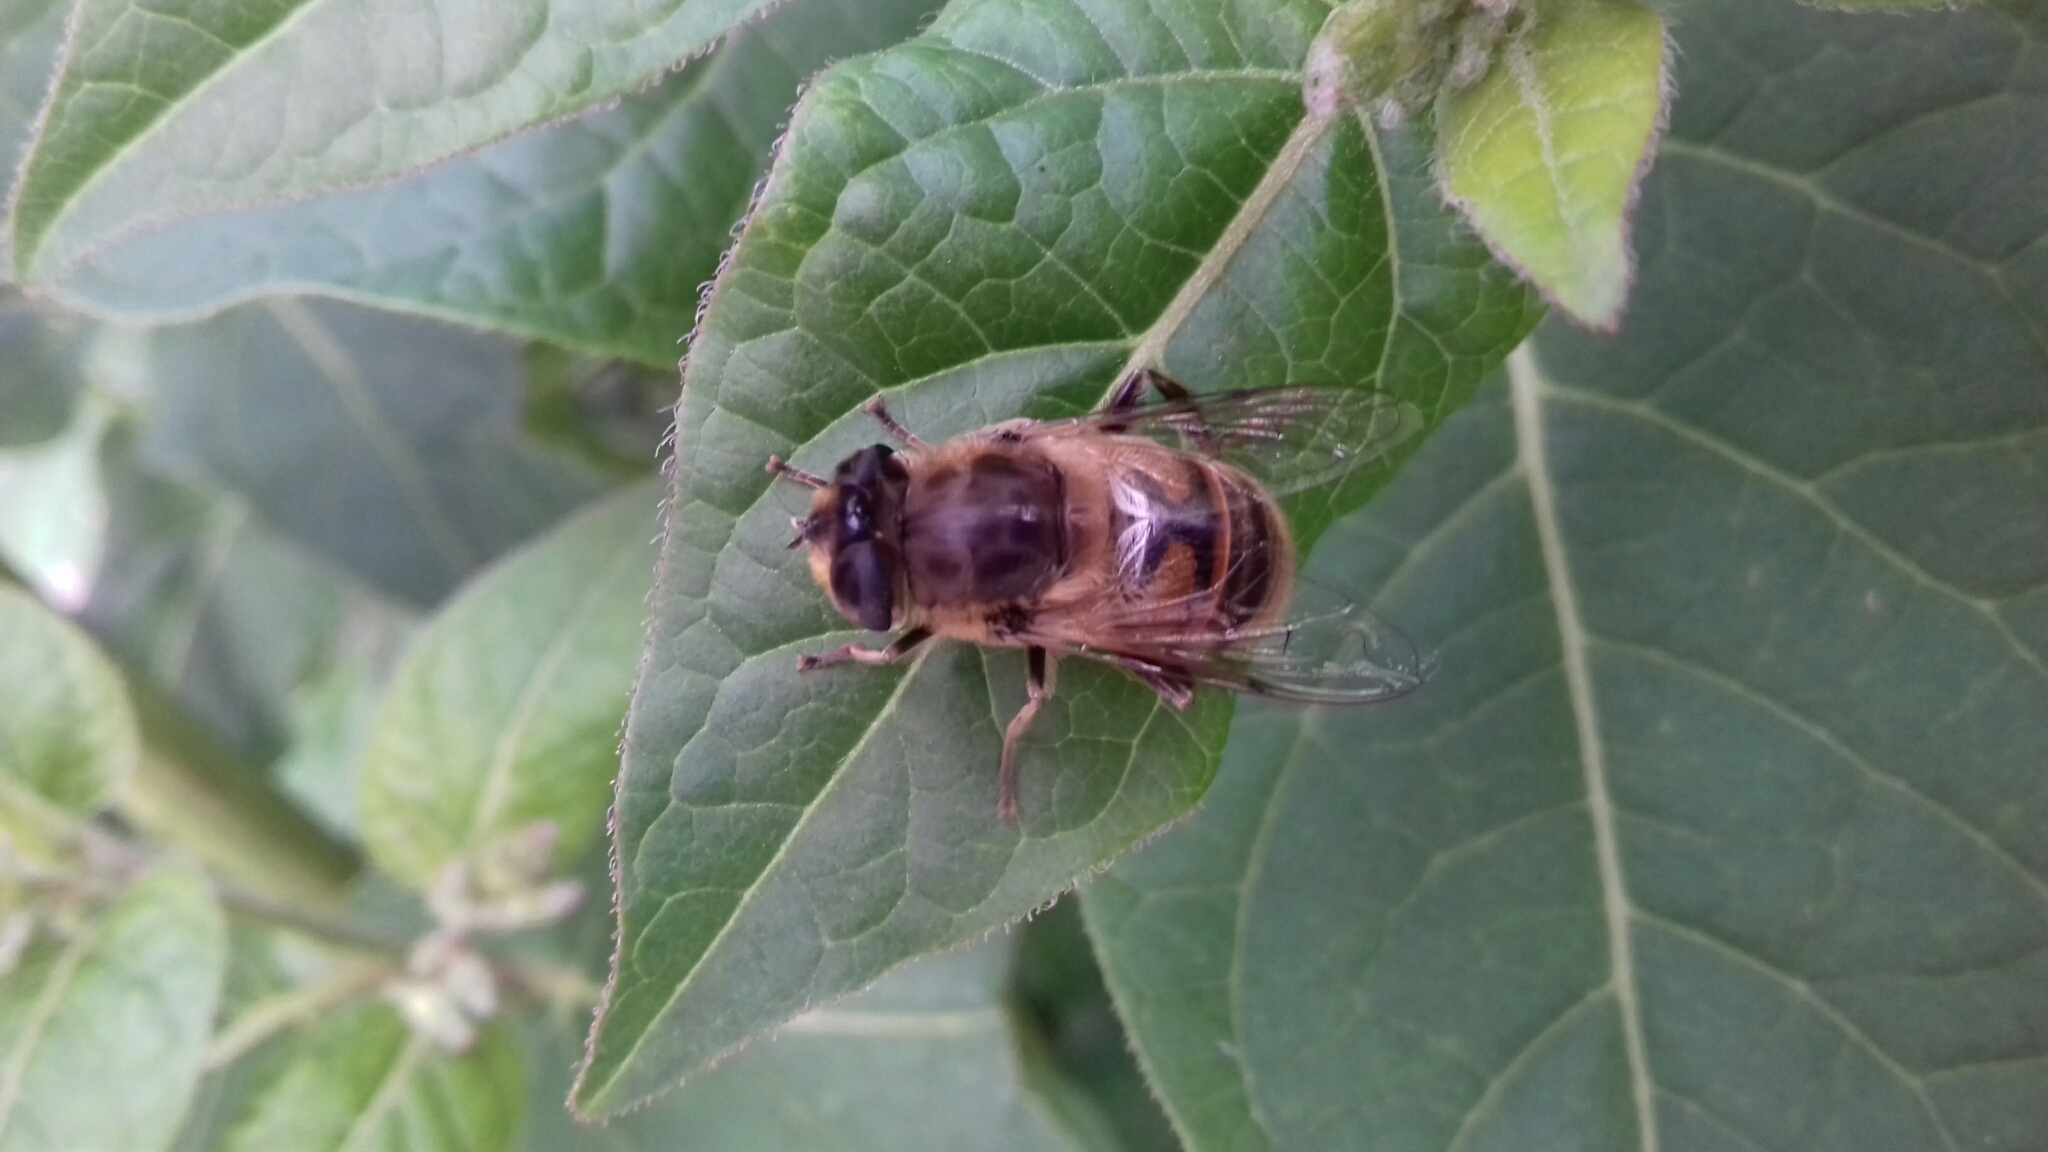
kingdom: Animalia
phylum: Arthropoda
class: Insecta
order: Diptera
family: Syrphidae
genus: Eristalis
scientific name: Eristalis tenax
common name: Drone fly
